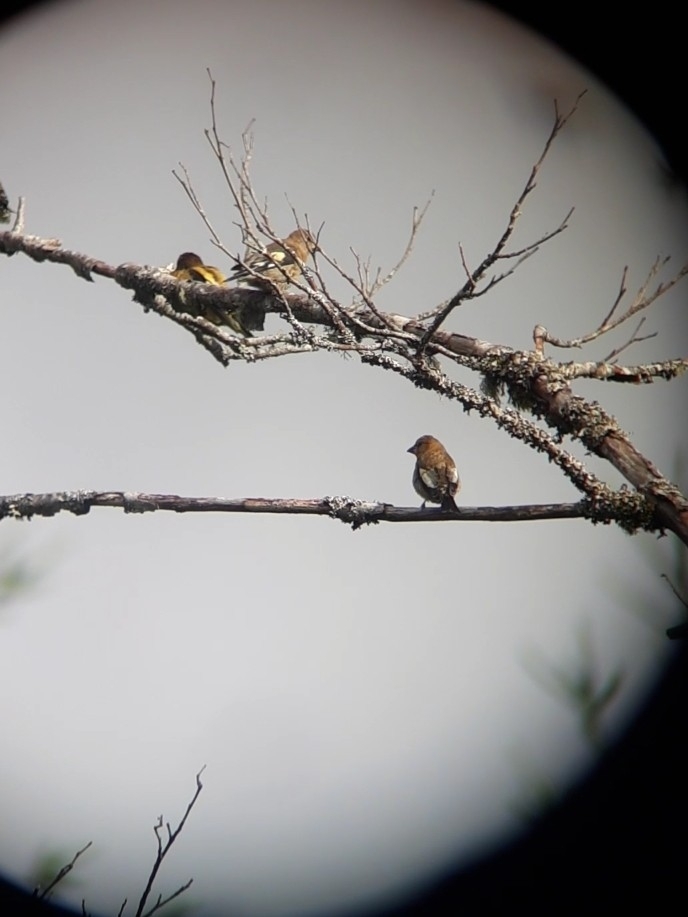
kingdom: Animalia
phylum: Chordata
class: Aves
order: Passeriformes
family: Fringillidae
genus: Hesperiphona
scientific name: Hesperiphona vespertina
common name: Evening grosbeak
